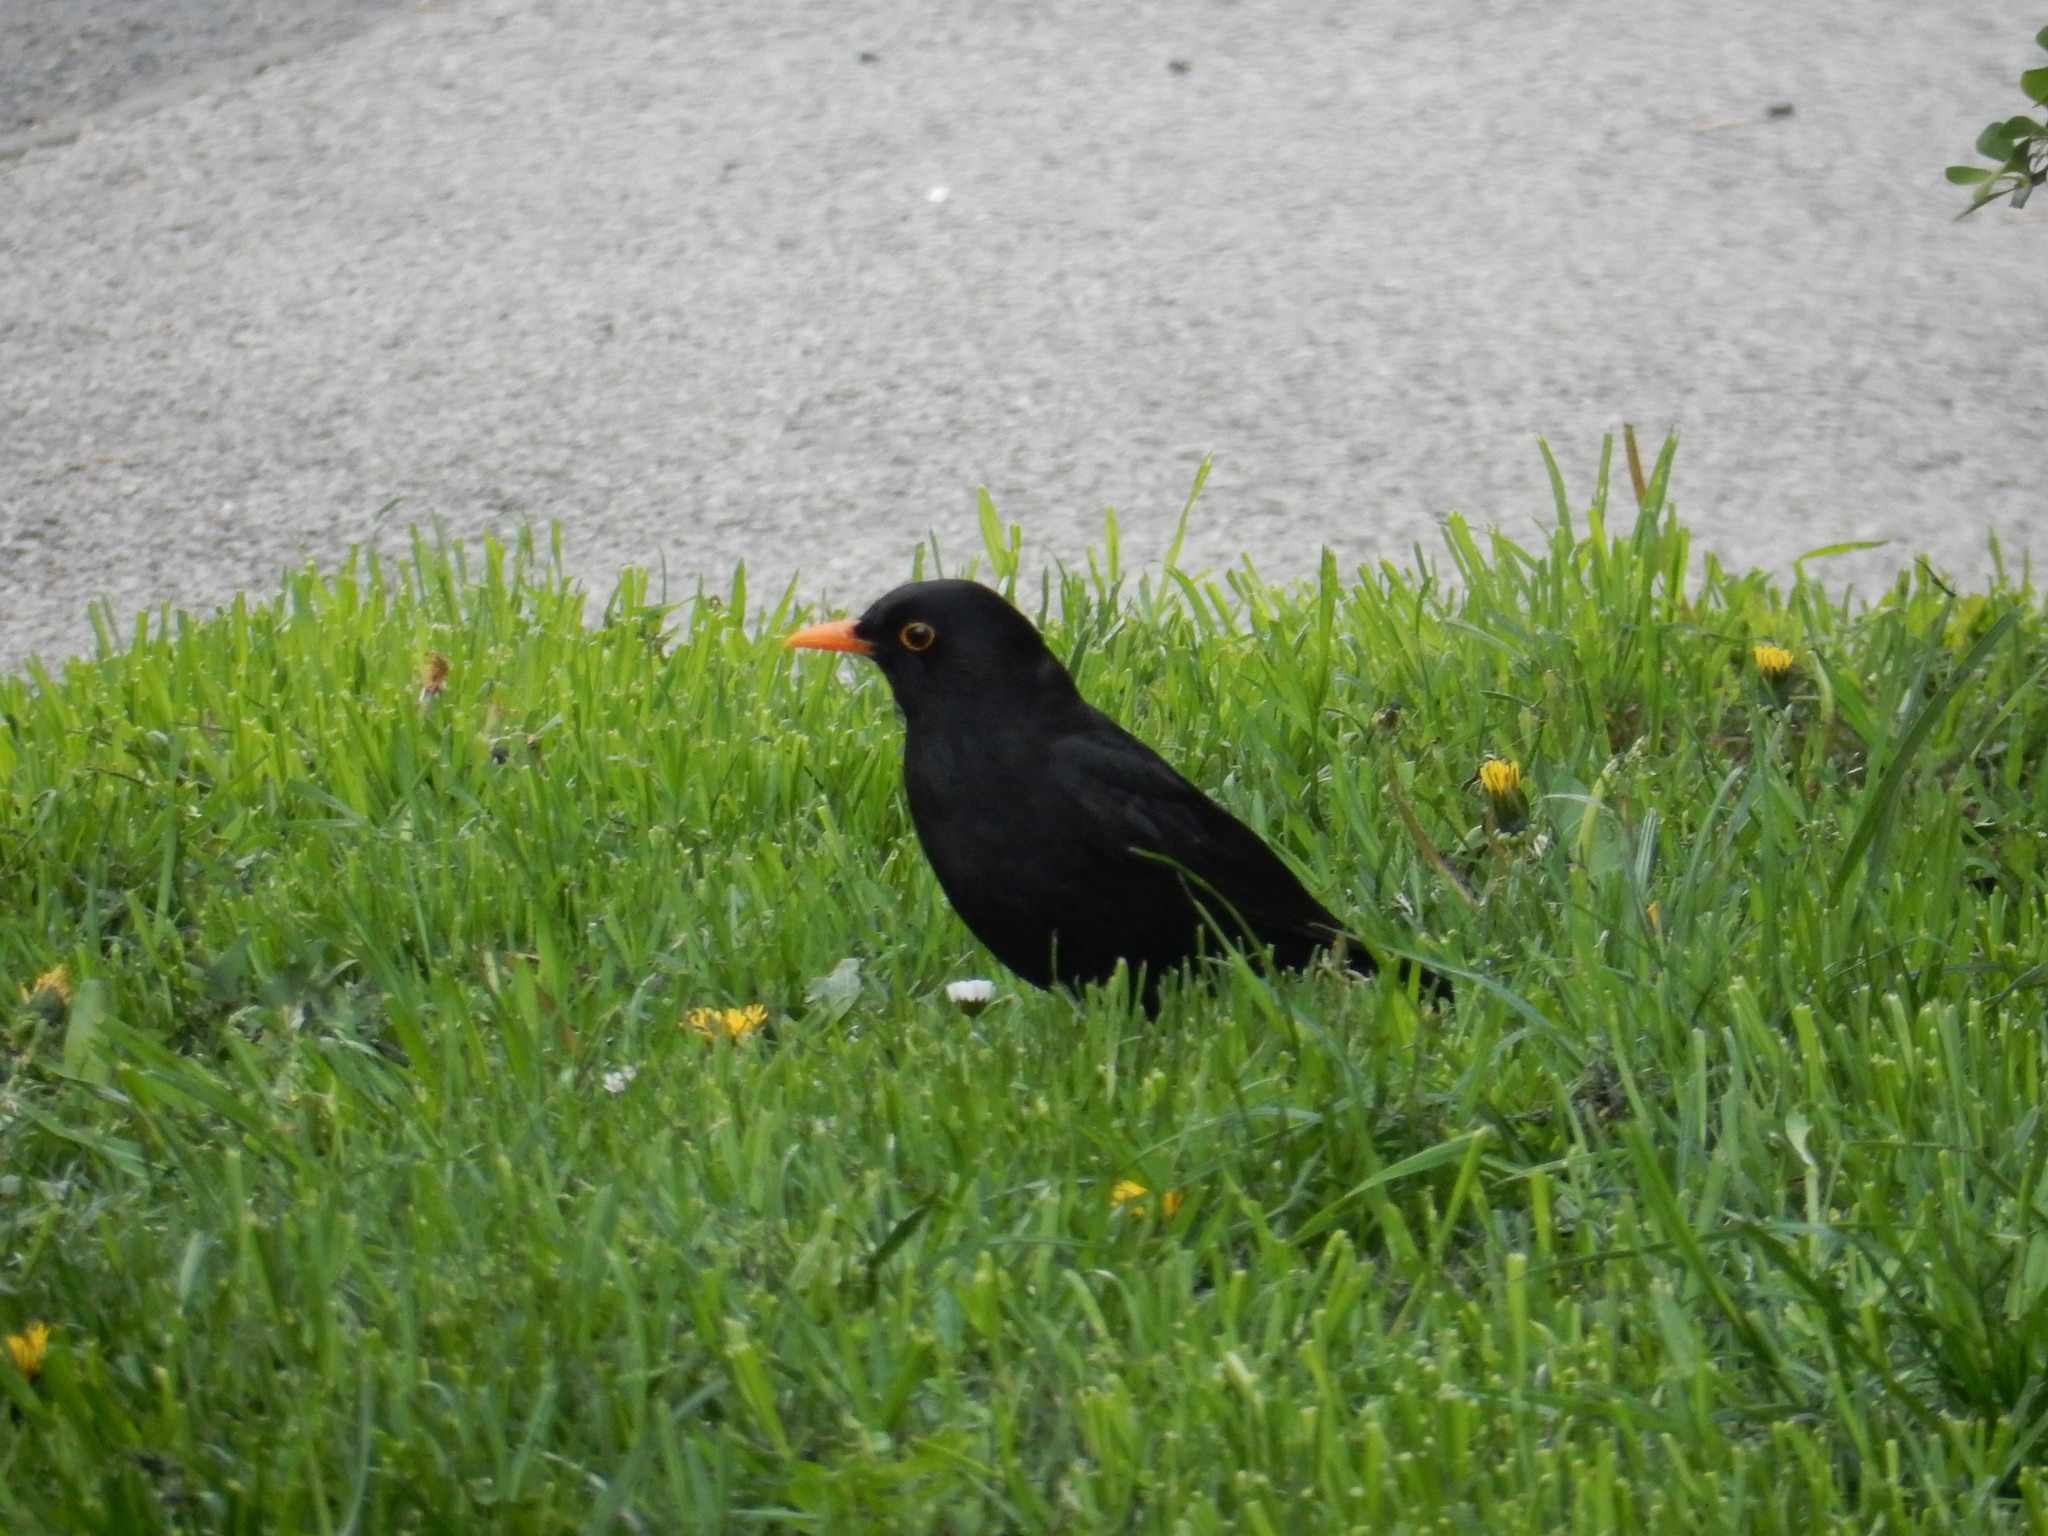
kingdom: Animalia
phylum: Chordata
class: Aves
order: Passeriformes
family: Turdidae
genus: Turdus
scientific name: Turdus merula
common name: Common blackbird
